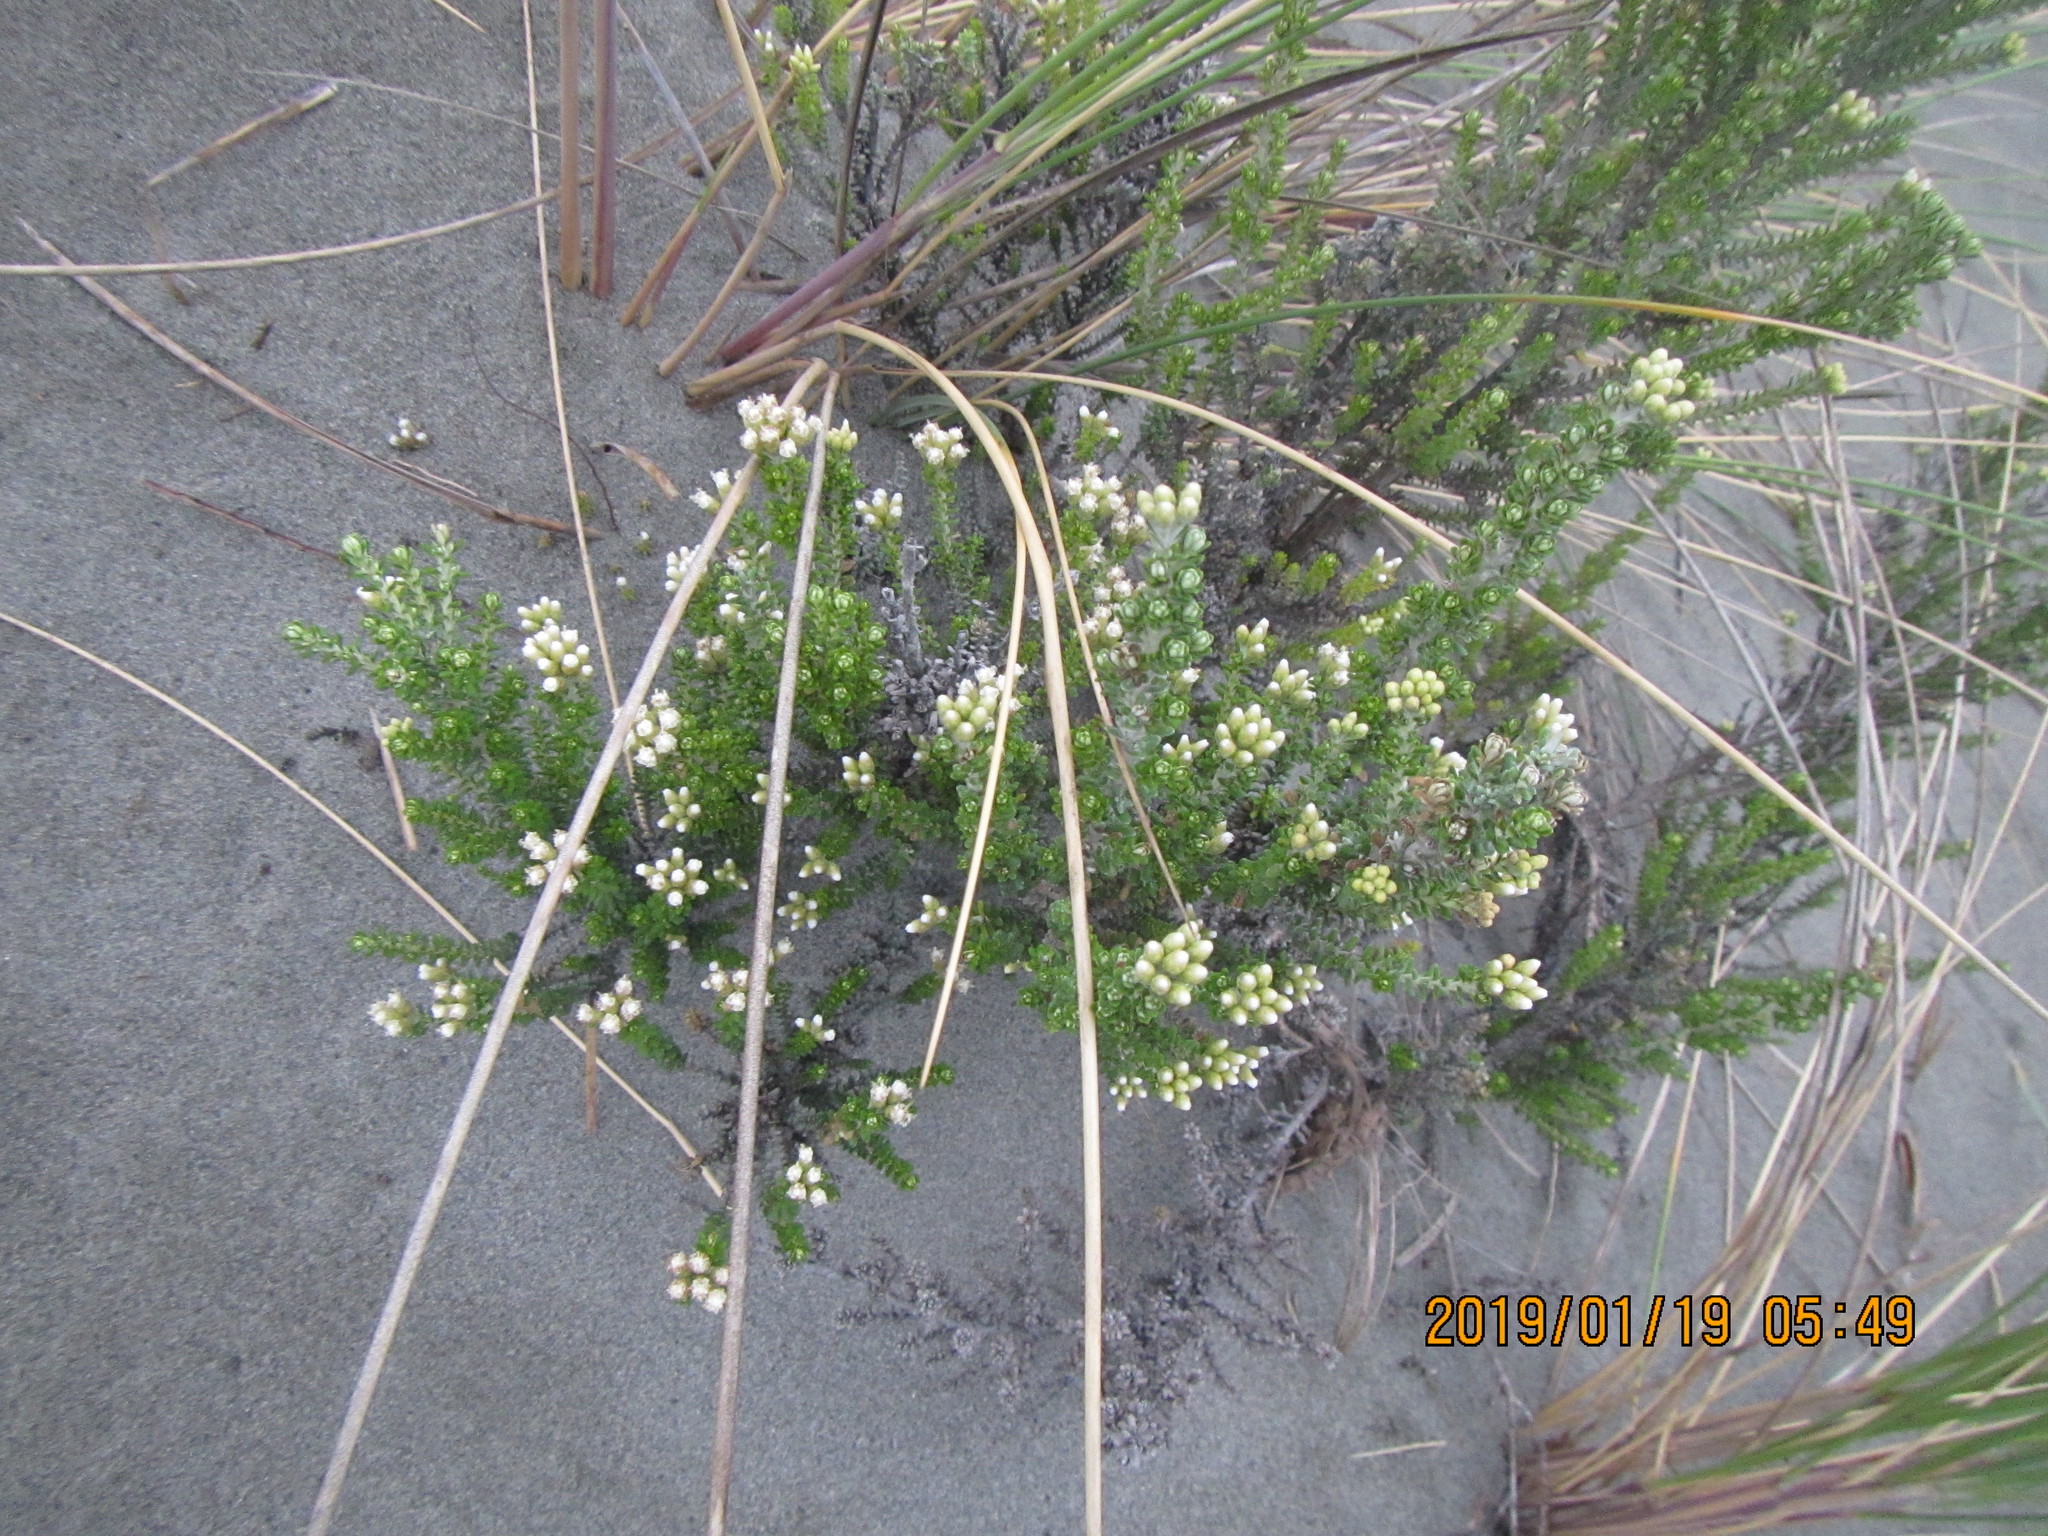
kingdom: Plantae
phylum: Tracheophyta
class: Magnoliopsida
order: Asterales
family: Asteraceae
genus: Ozothamnus
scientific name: Ozothamnus leptophyllus
